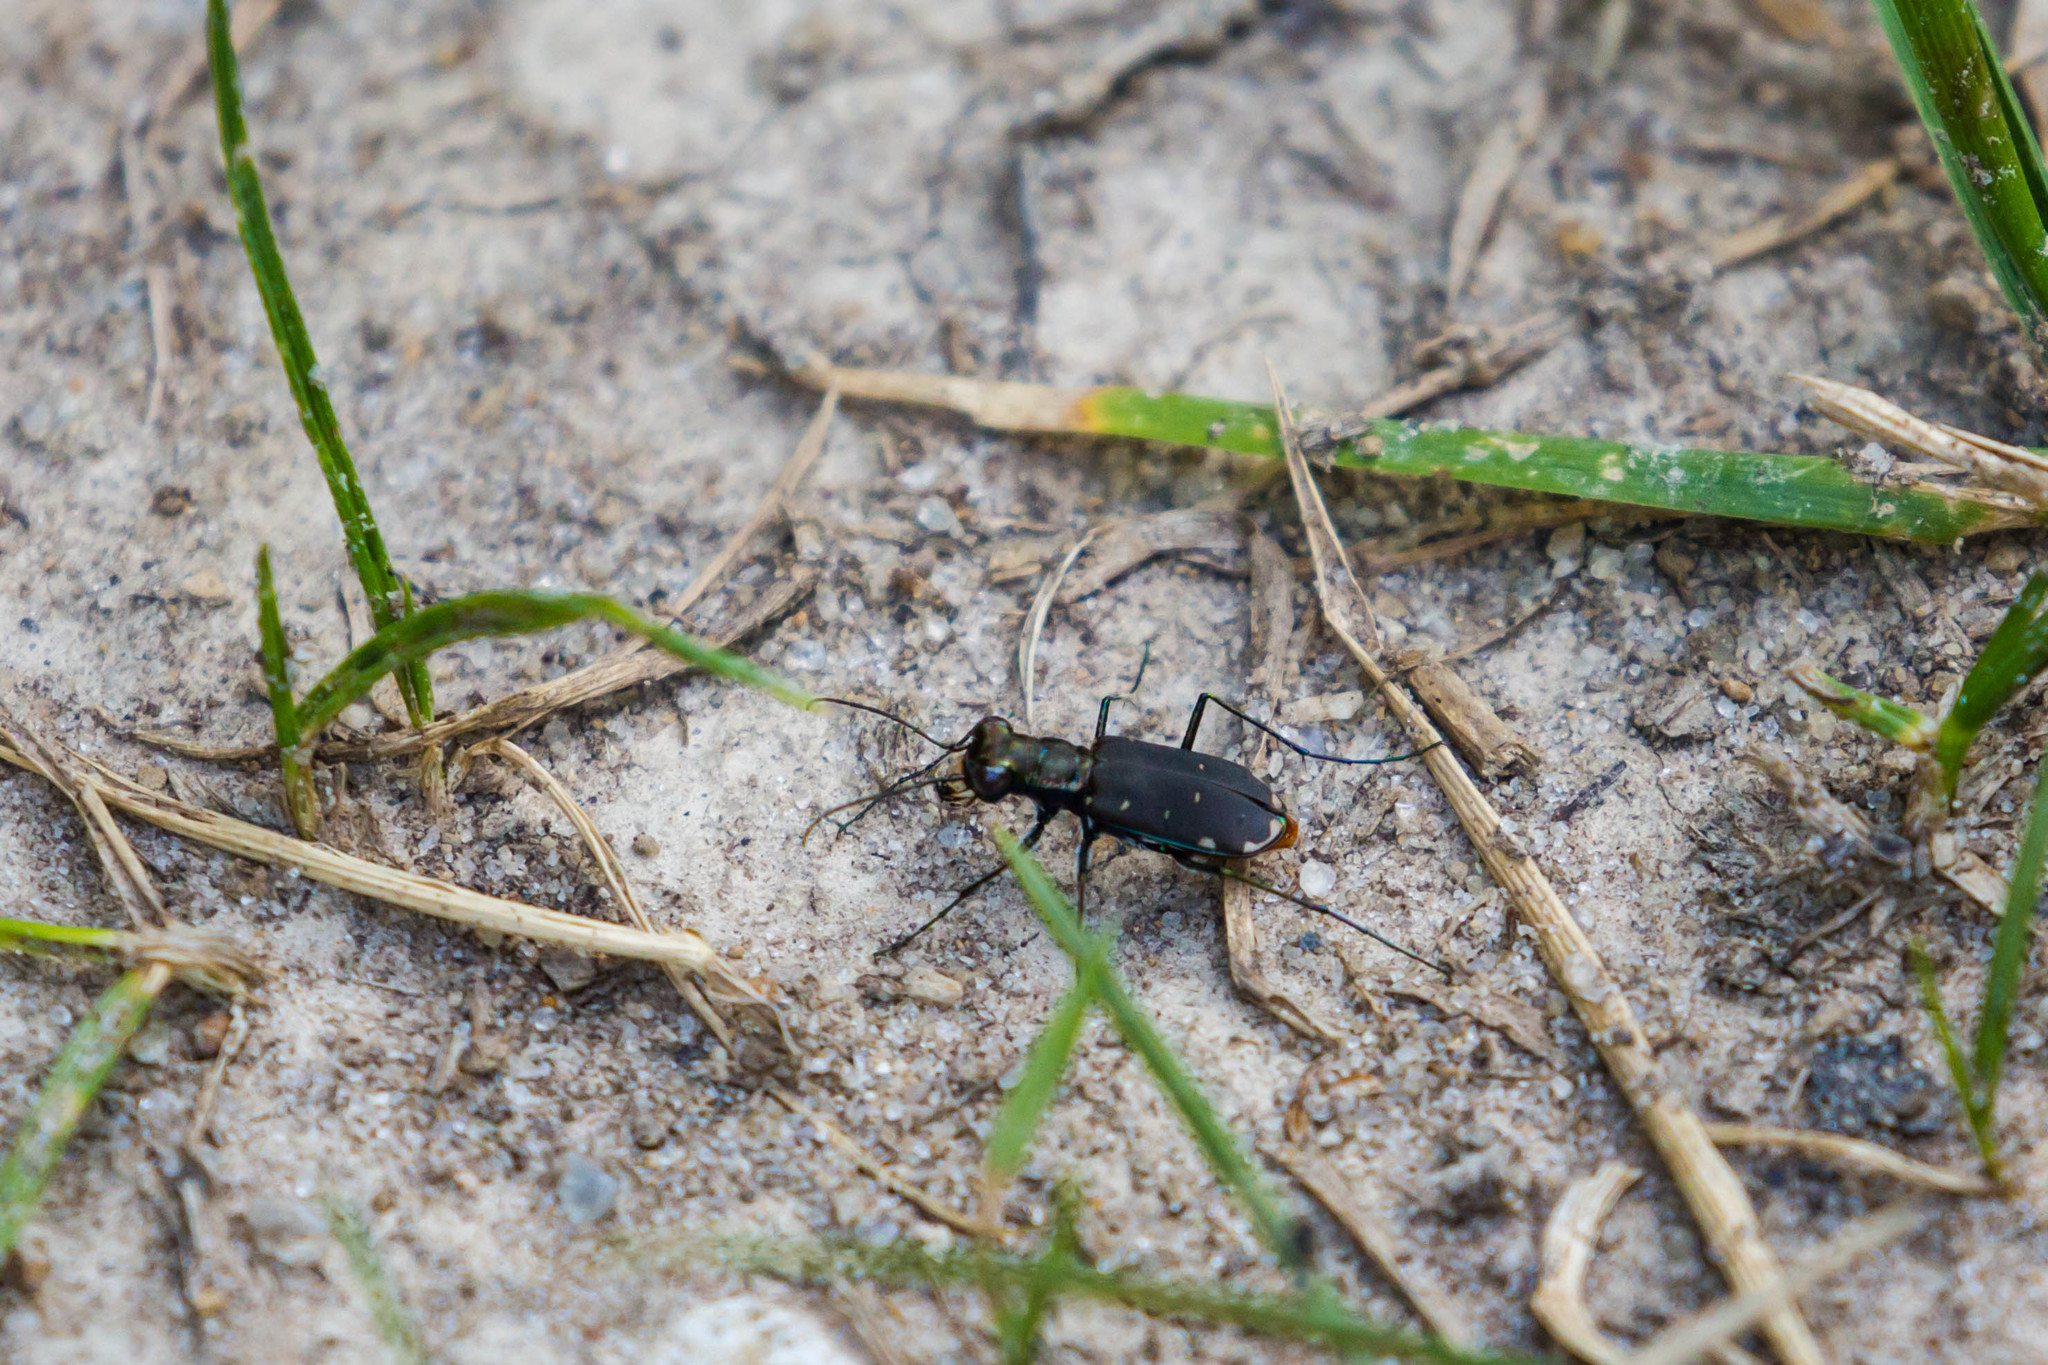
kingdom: Animalia
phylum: Arthropoda
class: Insecta
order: Coleoptera
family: Carabidae
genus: Cicindela
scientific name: Cicindela rufiventris
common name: Eastern red-bellied tiger beetle
